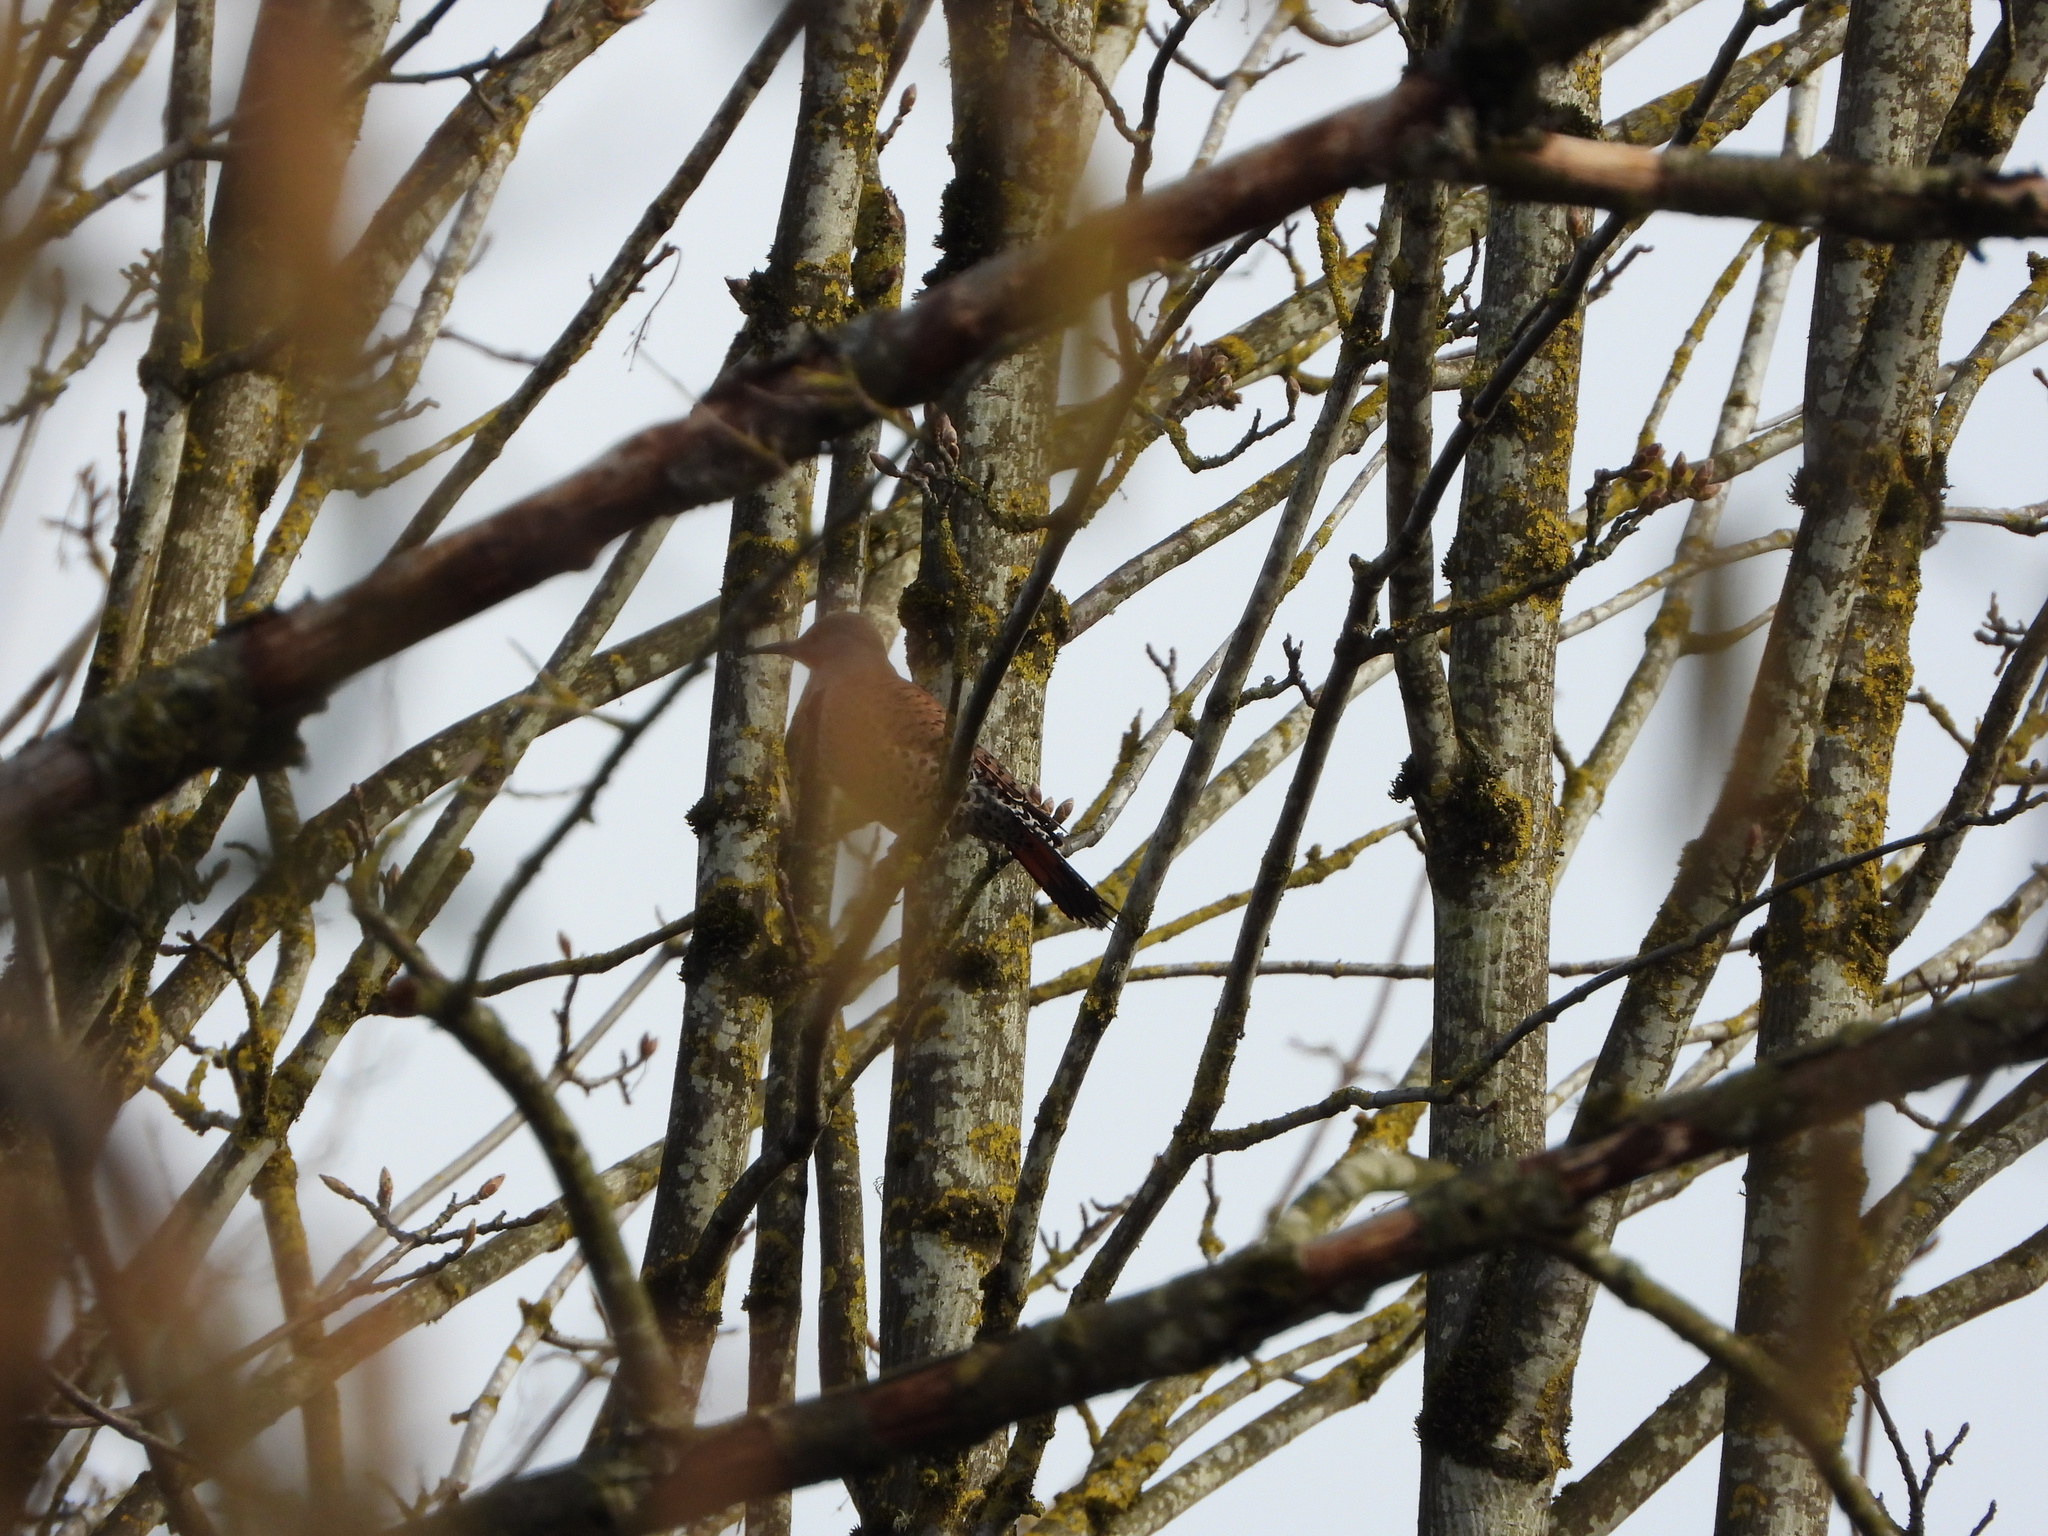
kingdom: Animalia
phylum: Chordata
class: Aves
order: Piciformes
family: Picidae
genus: Colaptes
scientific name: Colaptes auratus
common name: Northern flicker
